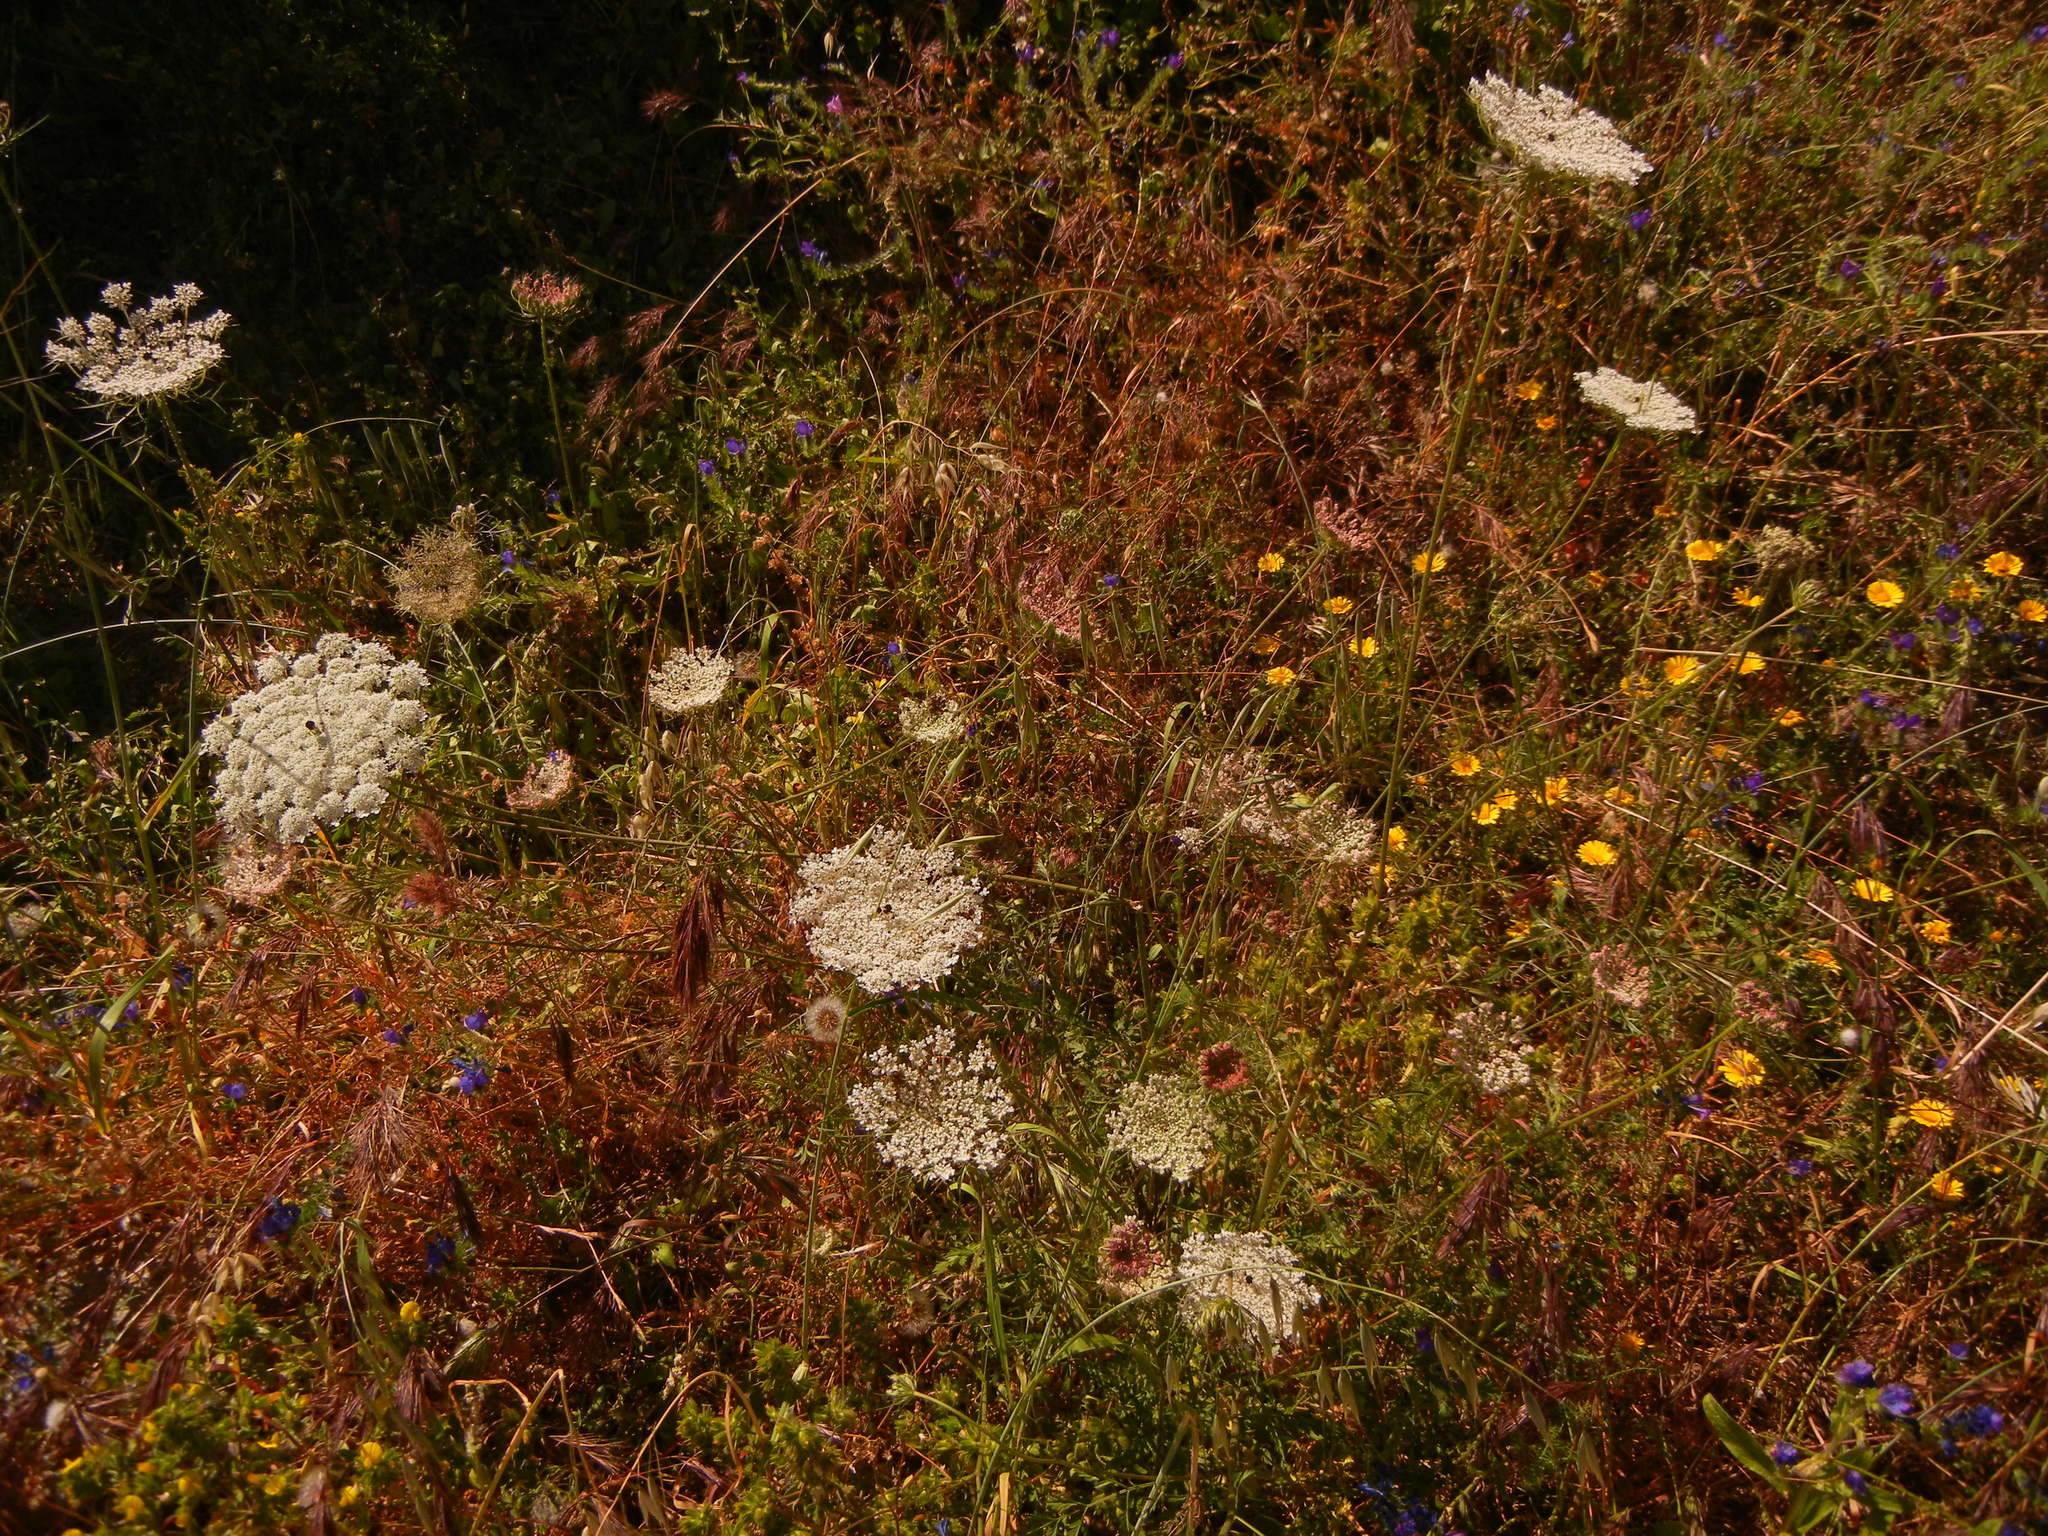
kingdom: Plantae
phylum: Tracheophyta
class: Magnoliopsida
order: Apiales
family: Apiaceae
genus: Daucus
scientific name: Daucus carota
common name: Wild carrot
